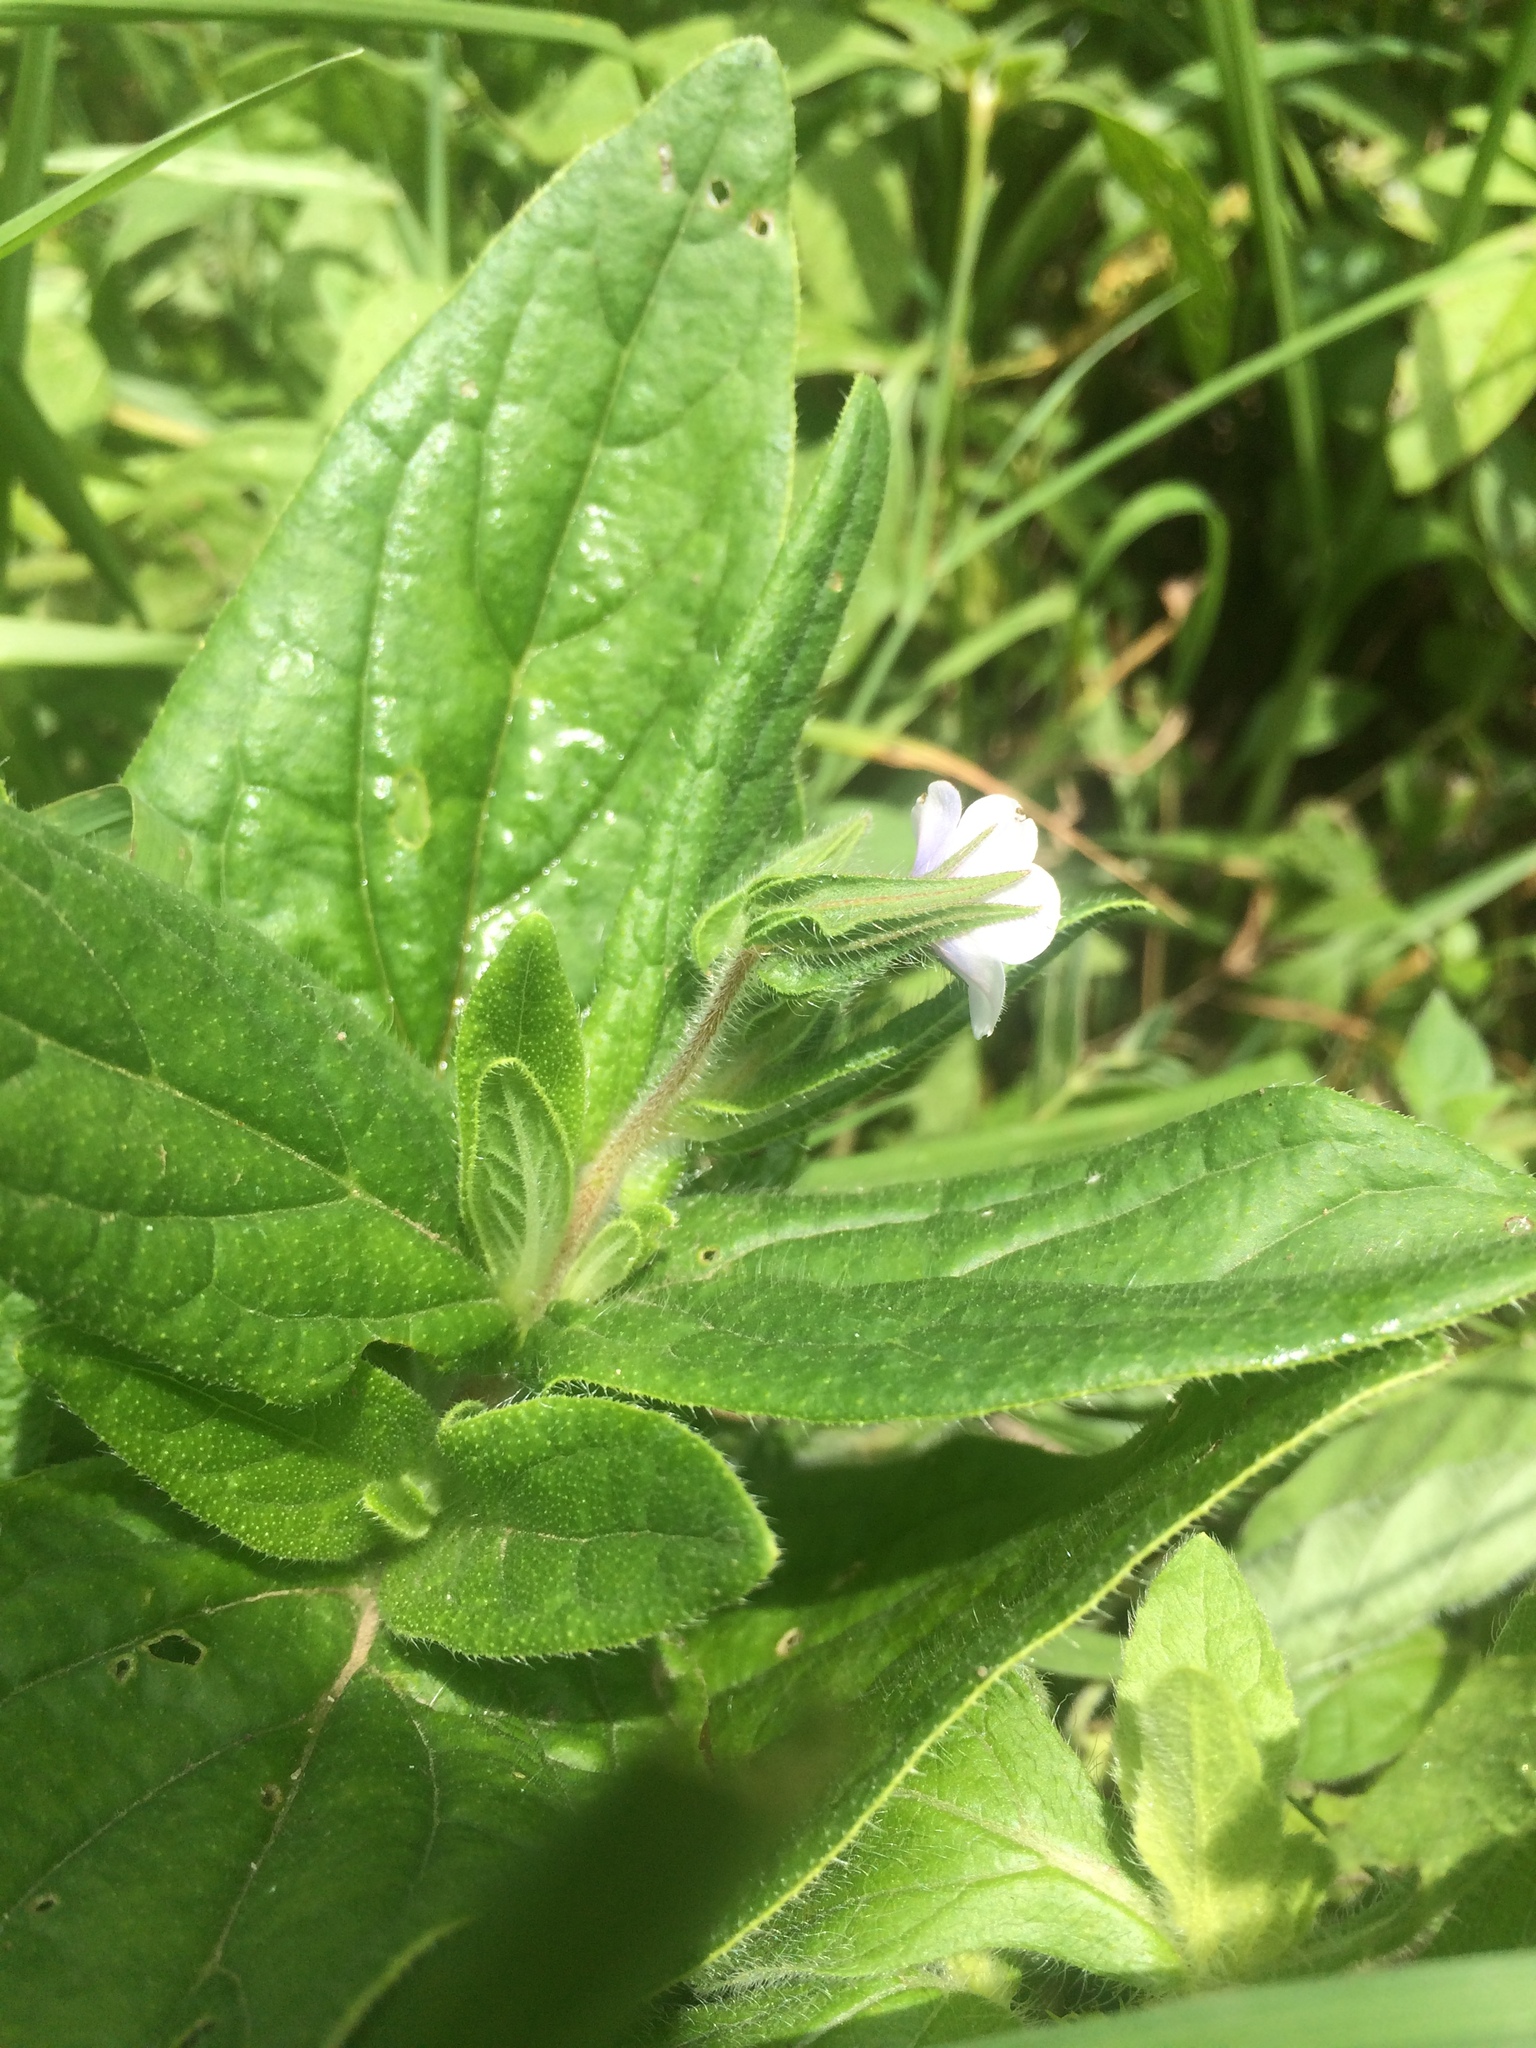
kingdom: Plantae
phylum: Tracheophyta
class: Magnoliopsida
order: Boraginales
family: Boraginaceae
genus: Trichodesma
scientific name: Trichodesma indicum
